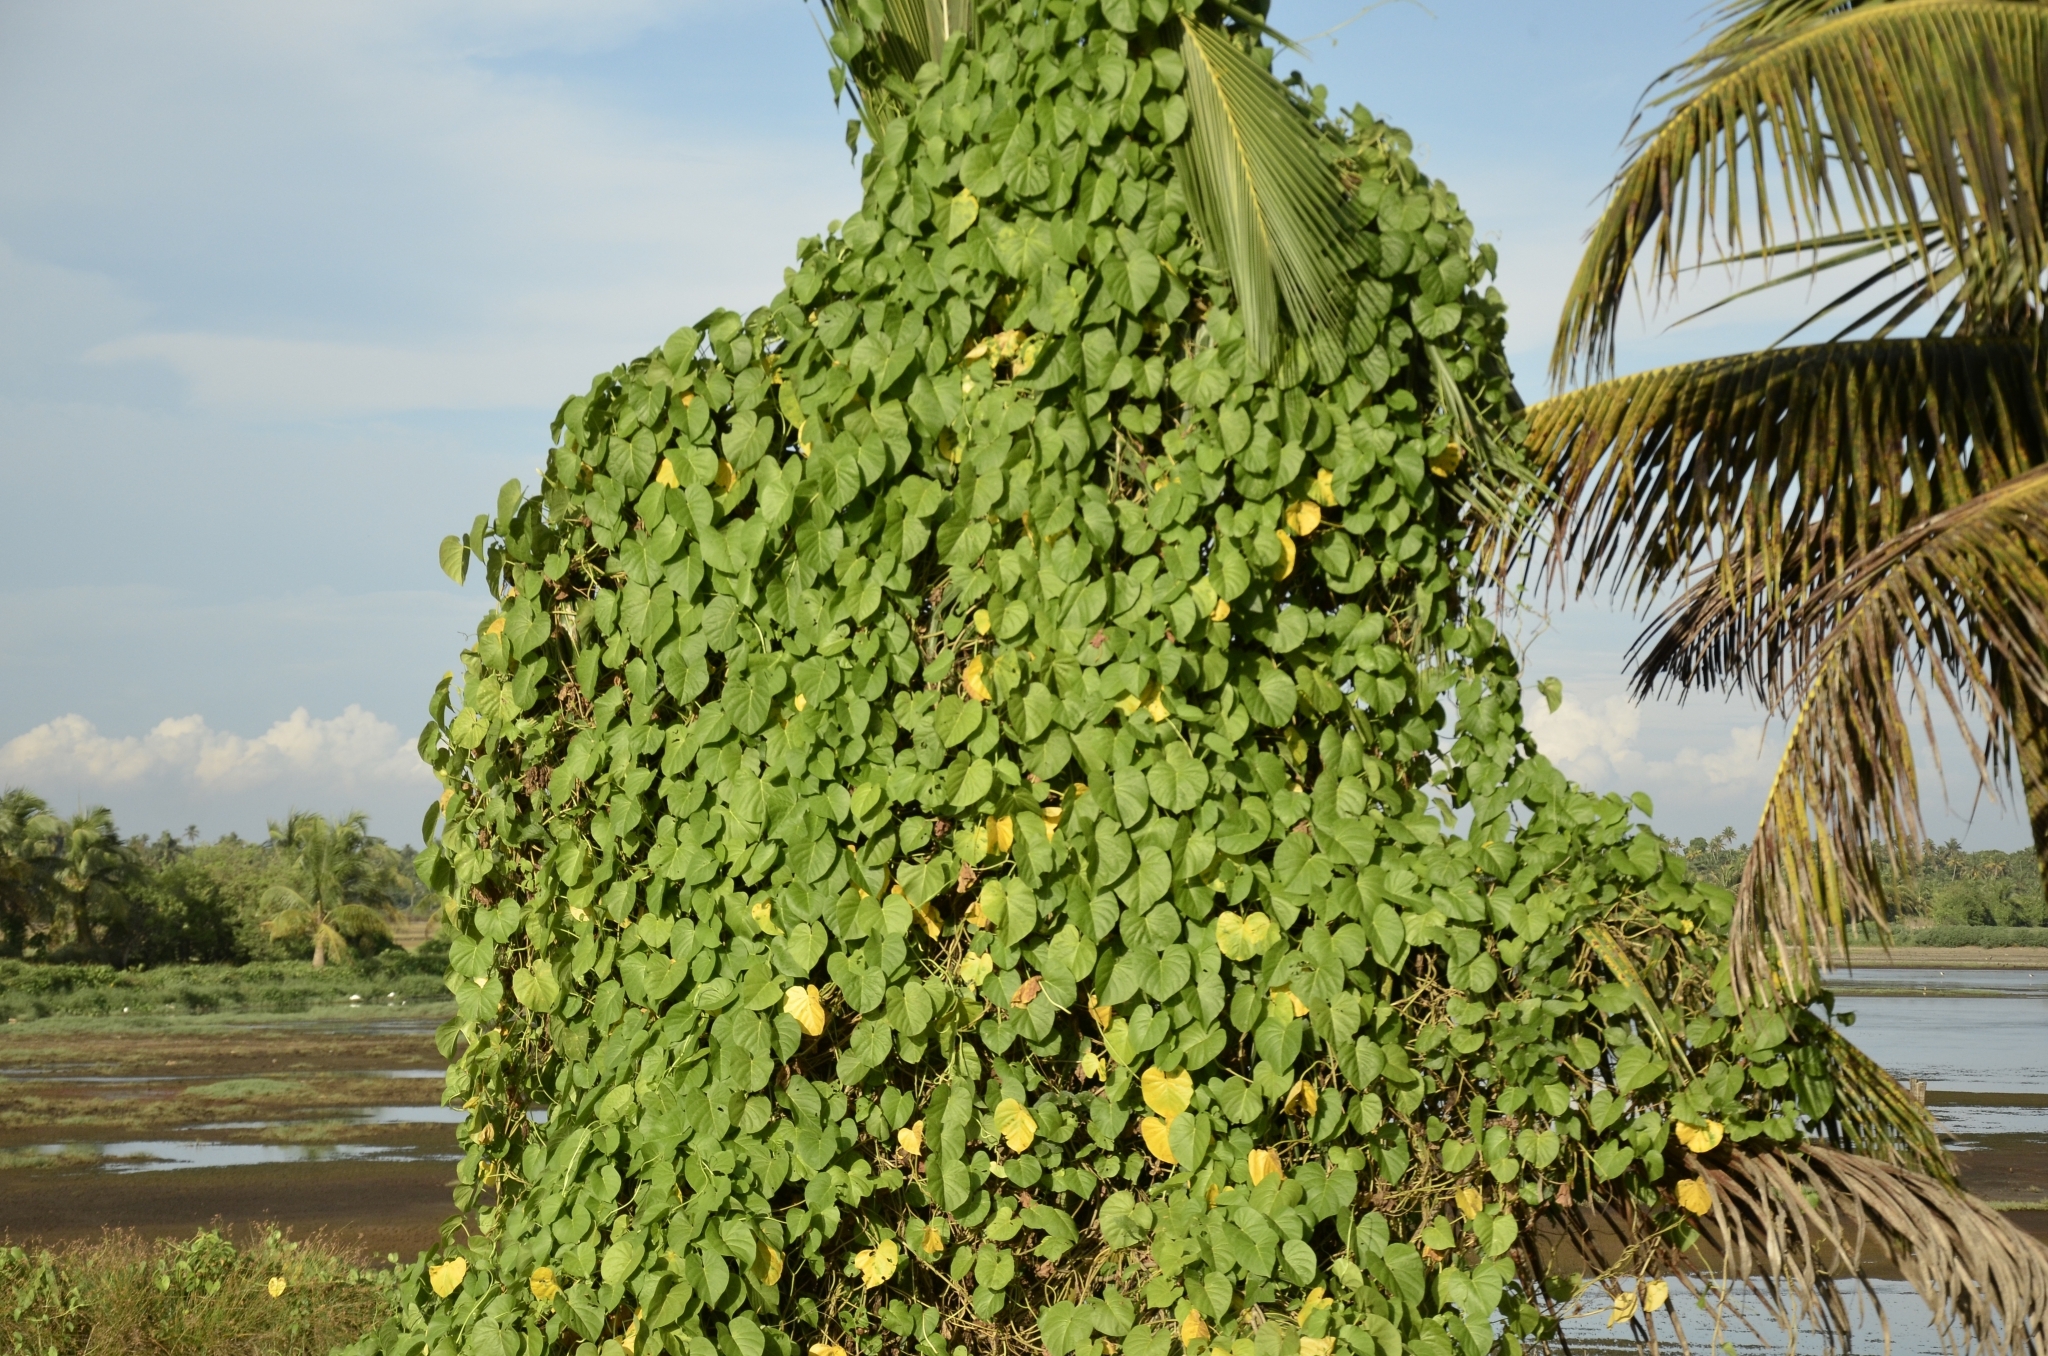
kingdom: Plantae
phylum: Tracheophyta
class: Magnoliopsida
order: Solanales
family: Convolvulaceae
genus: Ipomoea
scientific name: Ipomoea violacea
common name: Beach moonflower
